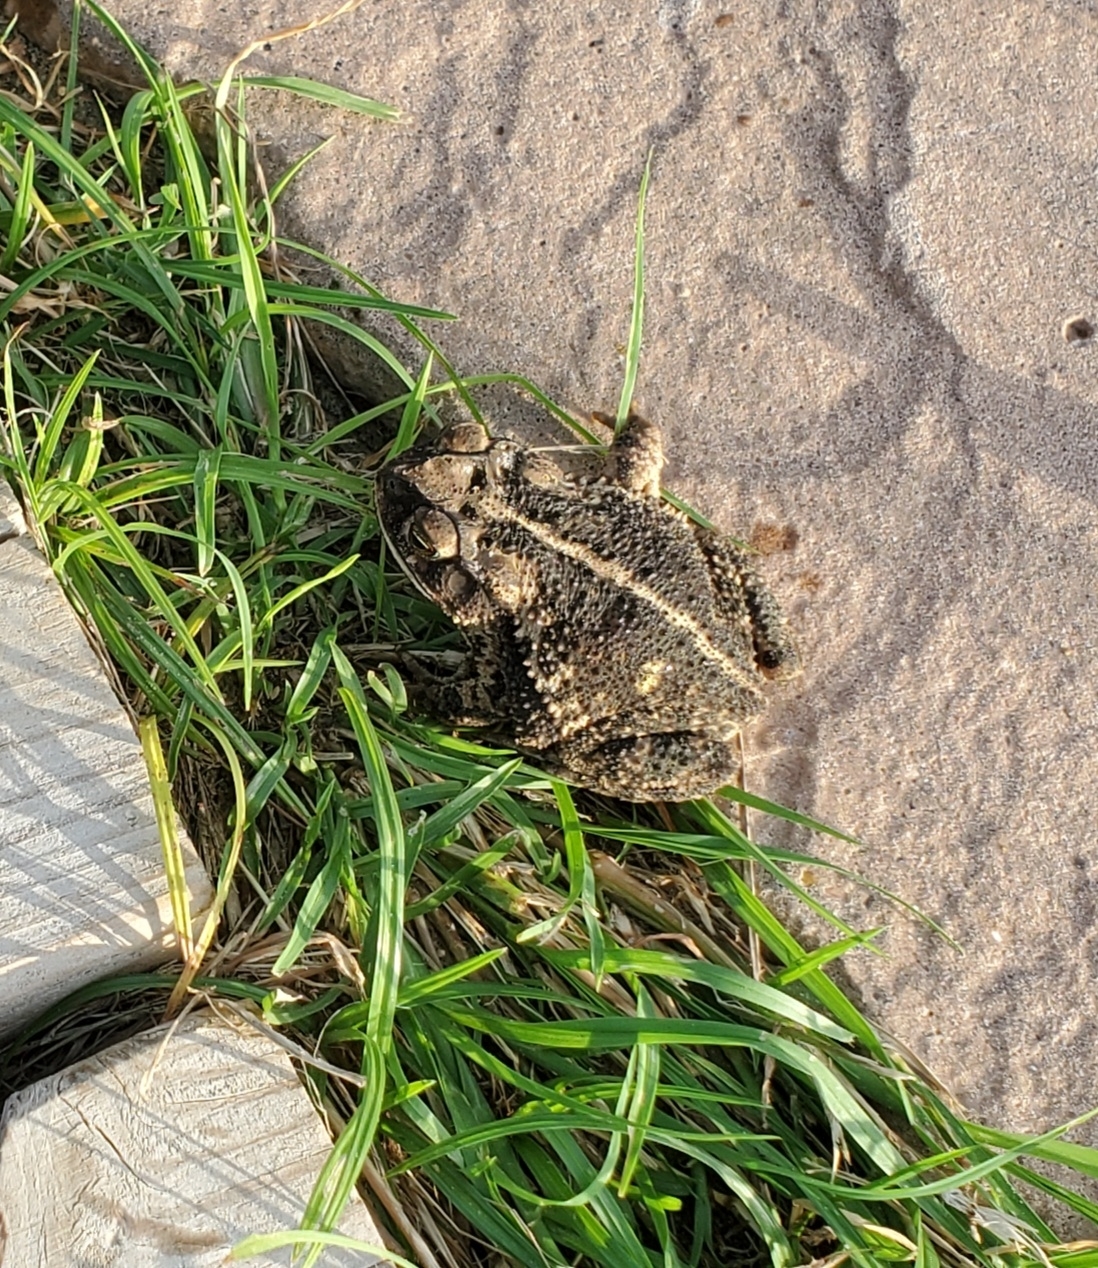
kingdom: Animalia
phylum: Chordata
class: Amphibia
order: Anura
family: Bufonidae
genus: Incilius
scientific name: Incilius nebulifer
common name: Gulf coast toad
